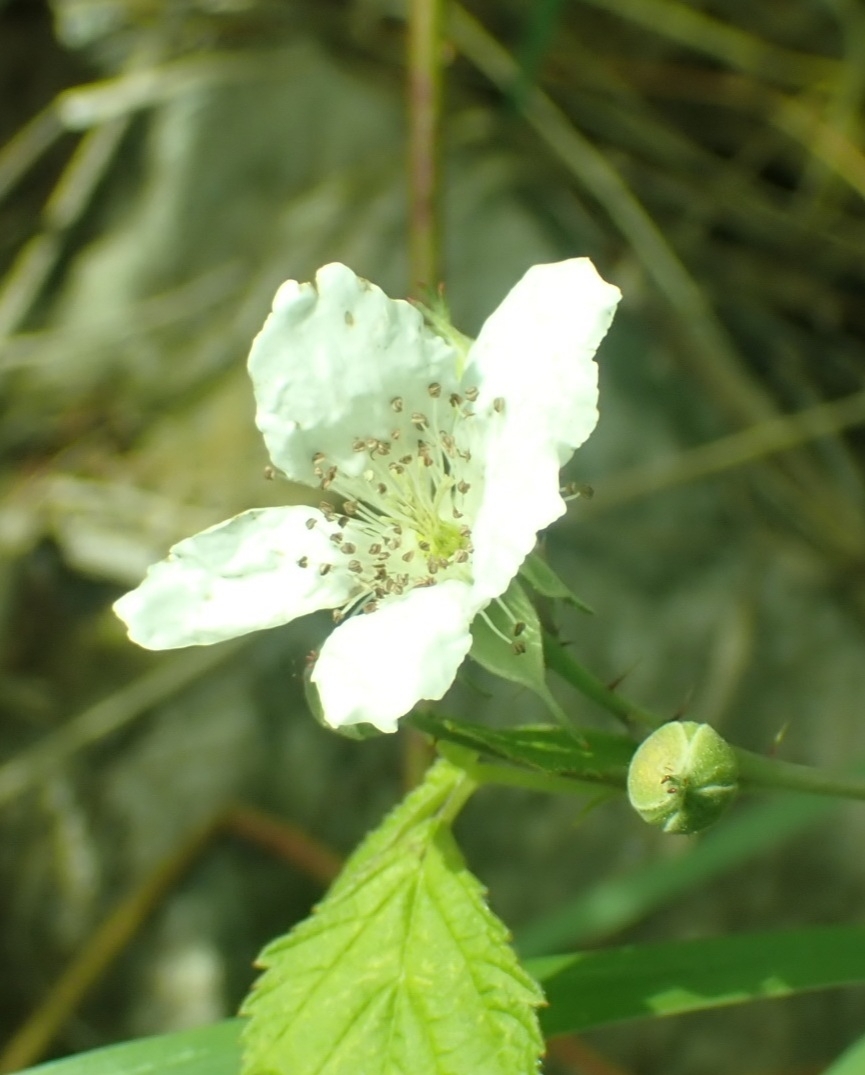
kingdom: Plantae
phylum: Tracheophyta
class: Magnoliopsida
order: Rosales
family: Rosaceae
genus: Rubus
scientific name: Rubus caesius
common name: Dewberry
